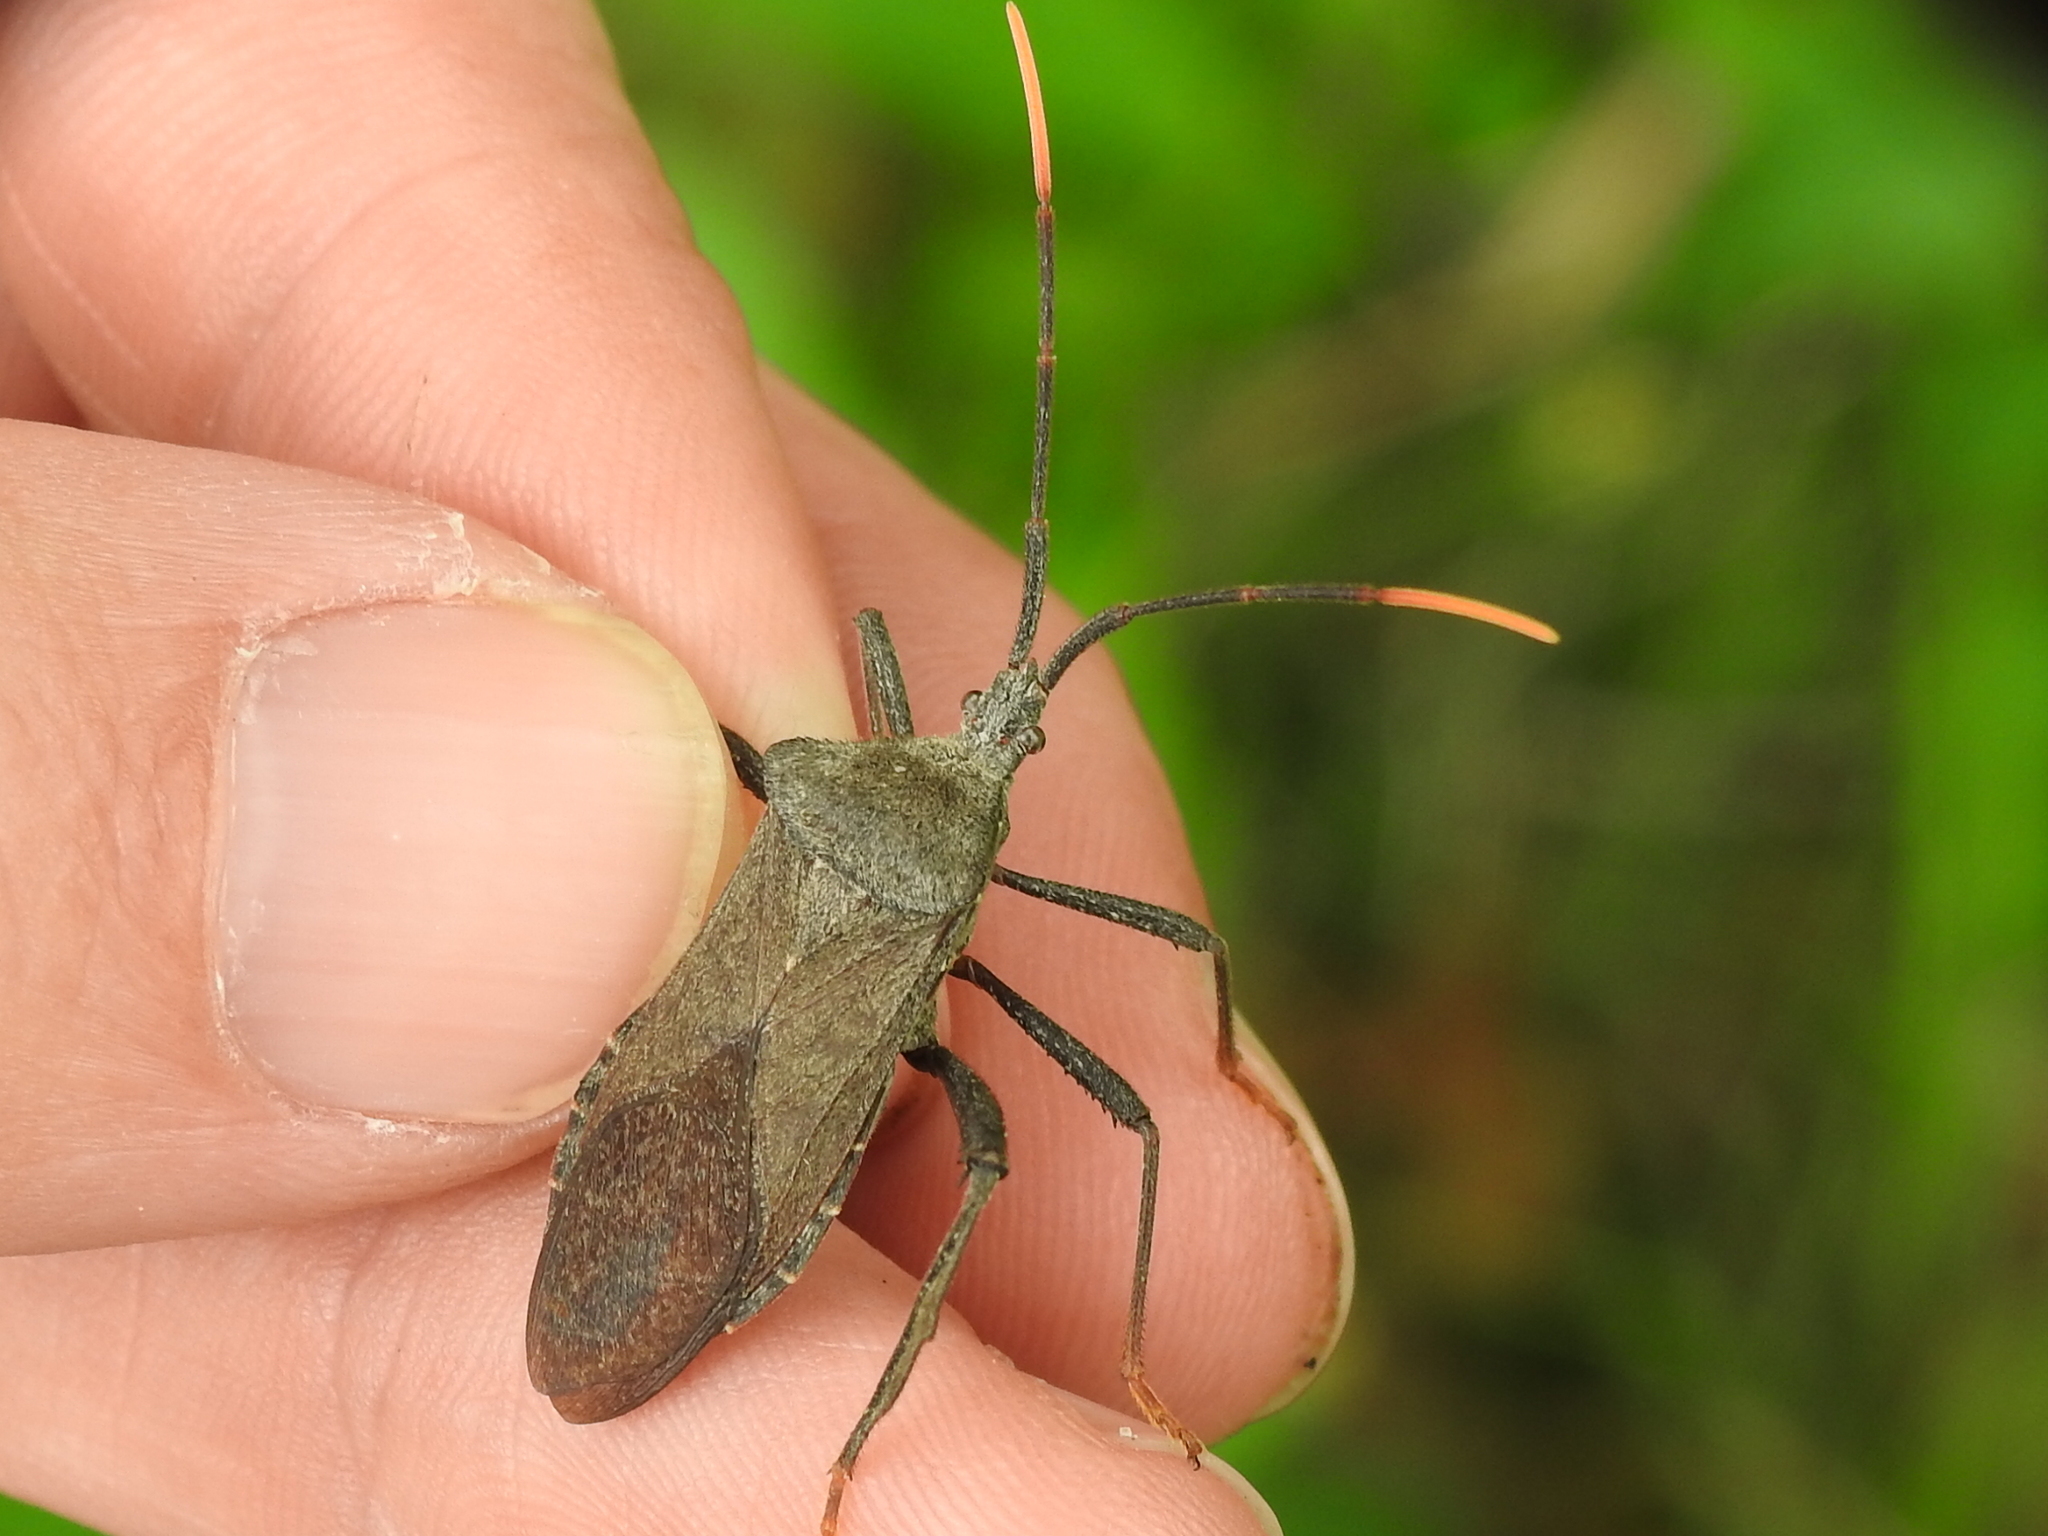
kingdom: Animalia
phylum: Arthropoda
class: Insecta
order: Hemiptera
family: Coreidae
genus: Acanthocephala
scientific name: Acanthocephala terminalis
